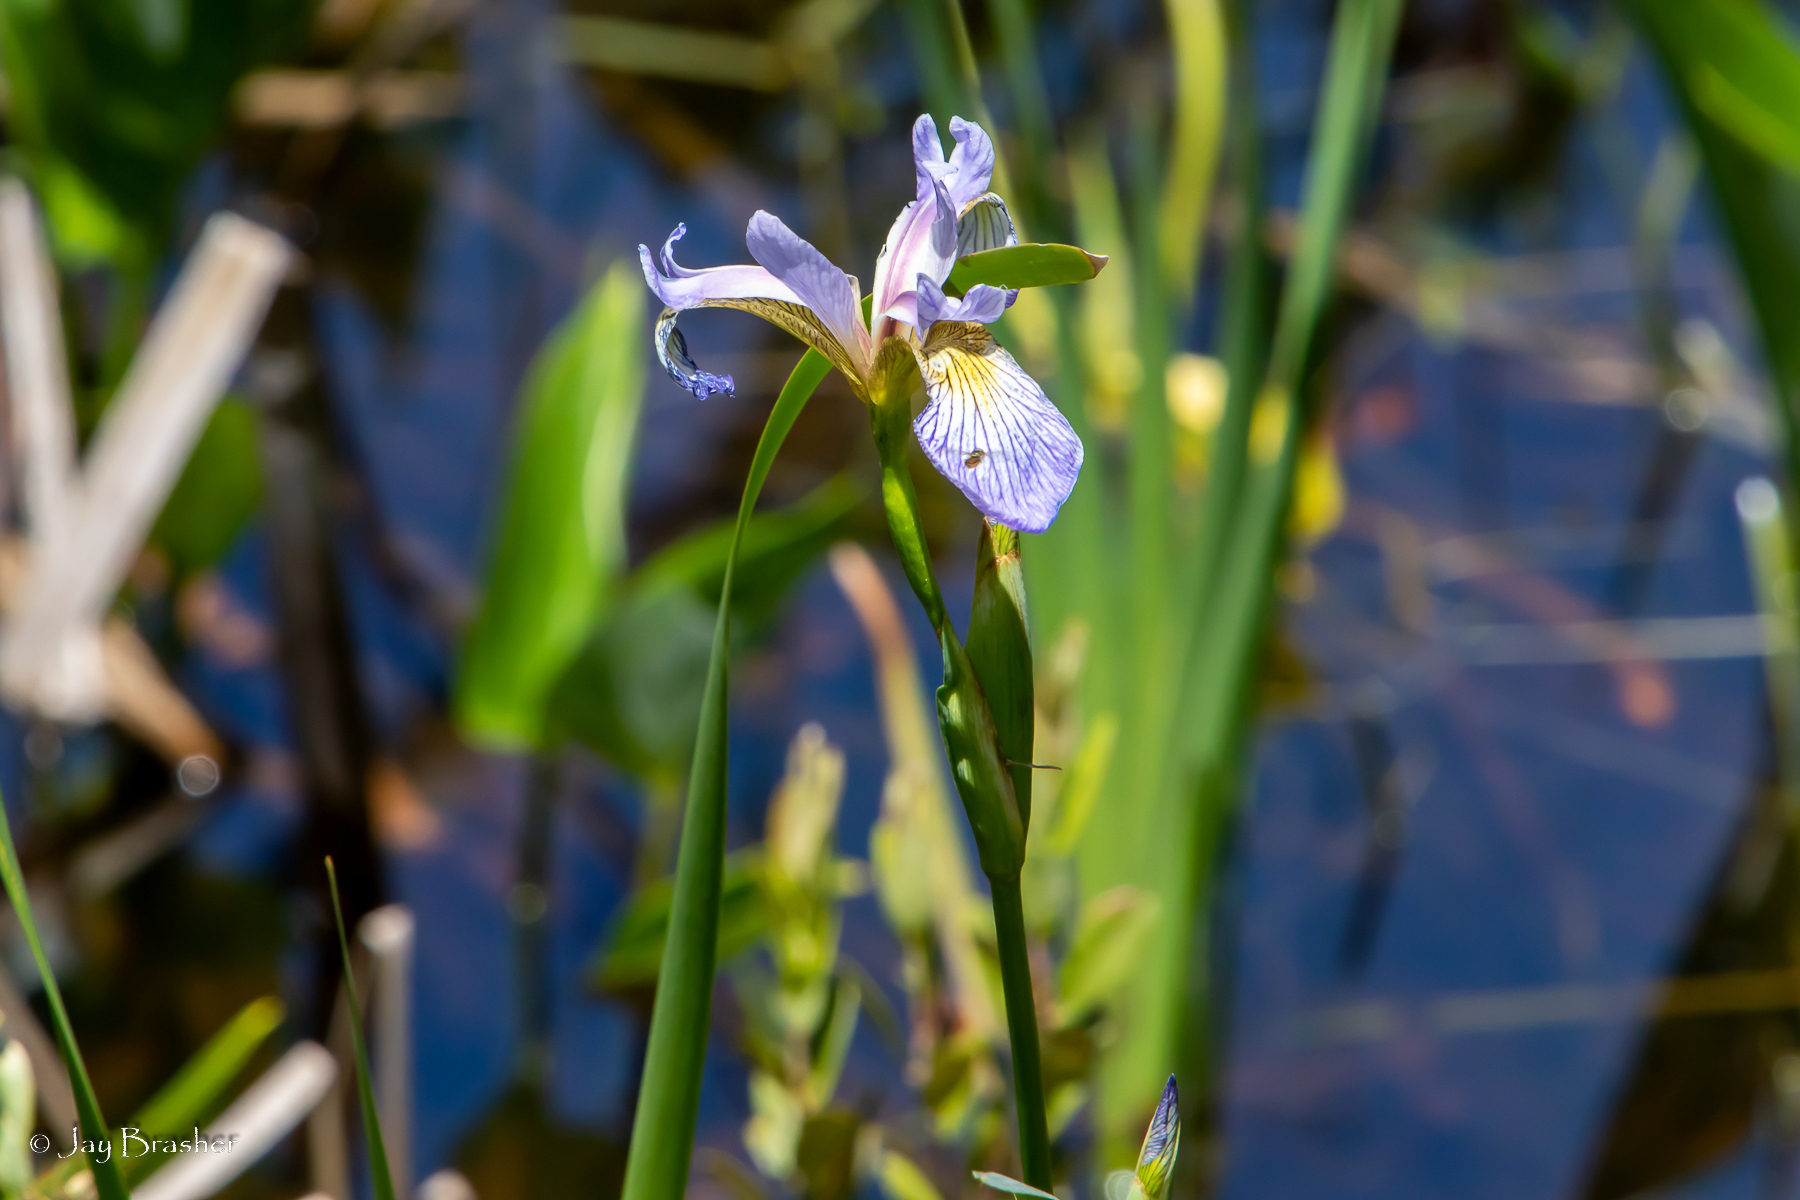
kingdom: Plantae
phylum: Tracheophyta
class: Liliopsida
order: Asparagales
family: Iridaceae
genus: Iris
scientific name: Iris versicolor
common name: Purple iris
